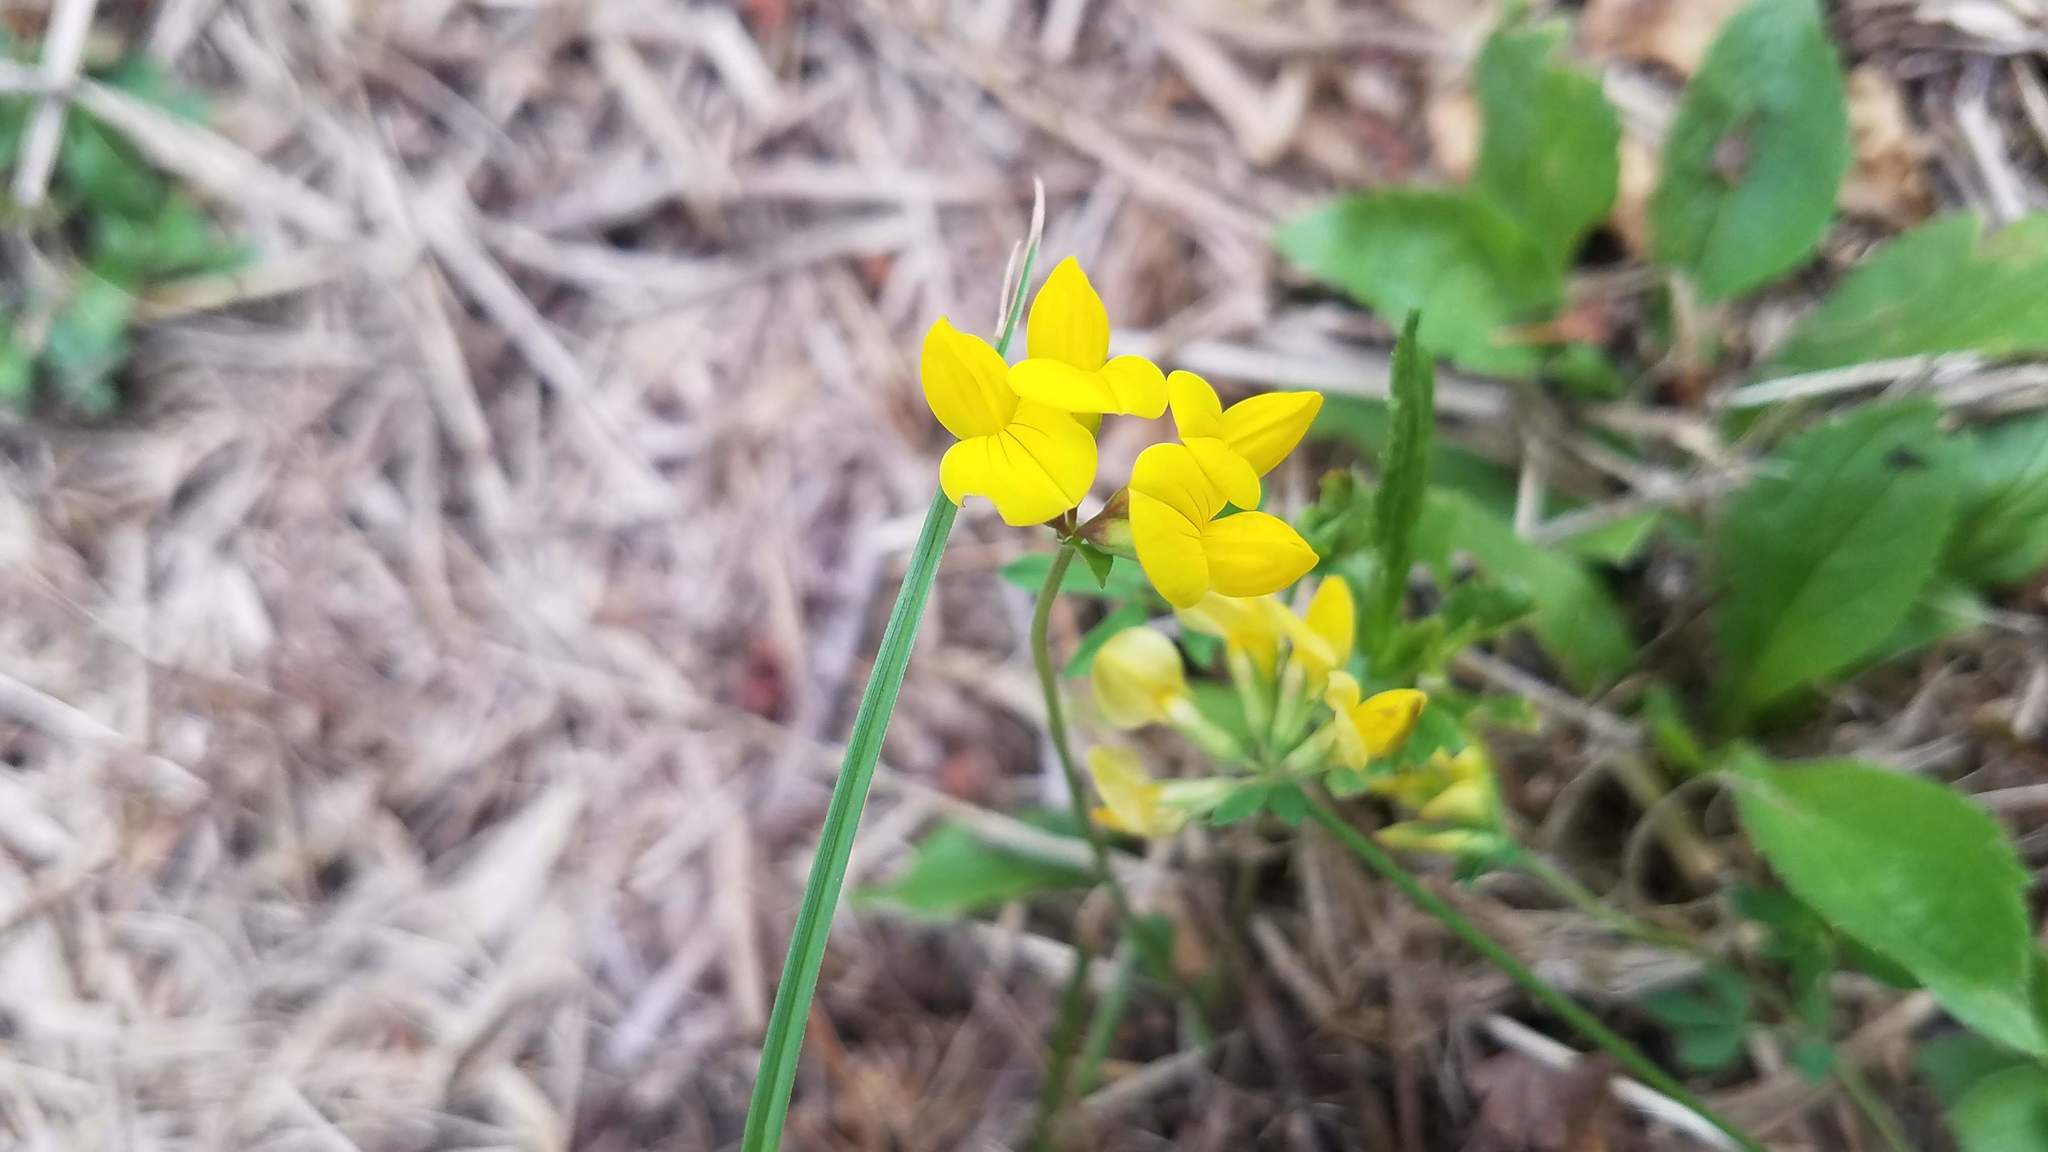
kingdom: Plantae
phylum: Tracheophyta
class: Magnoliopsida
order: Fabales
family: Fabaceae
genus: Lotus
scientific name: Lotus corniculatus
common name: Common bird's-foot-trefoil
